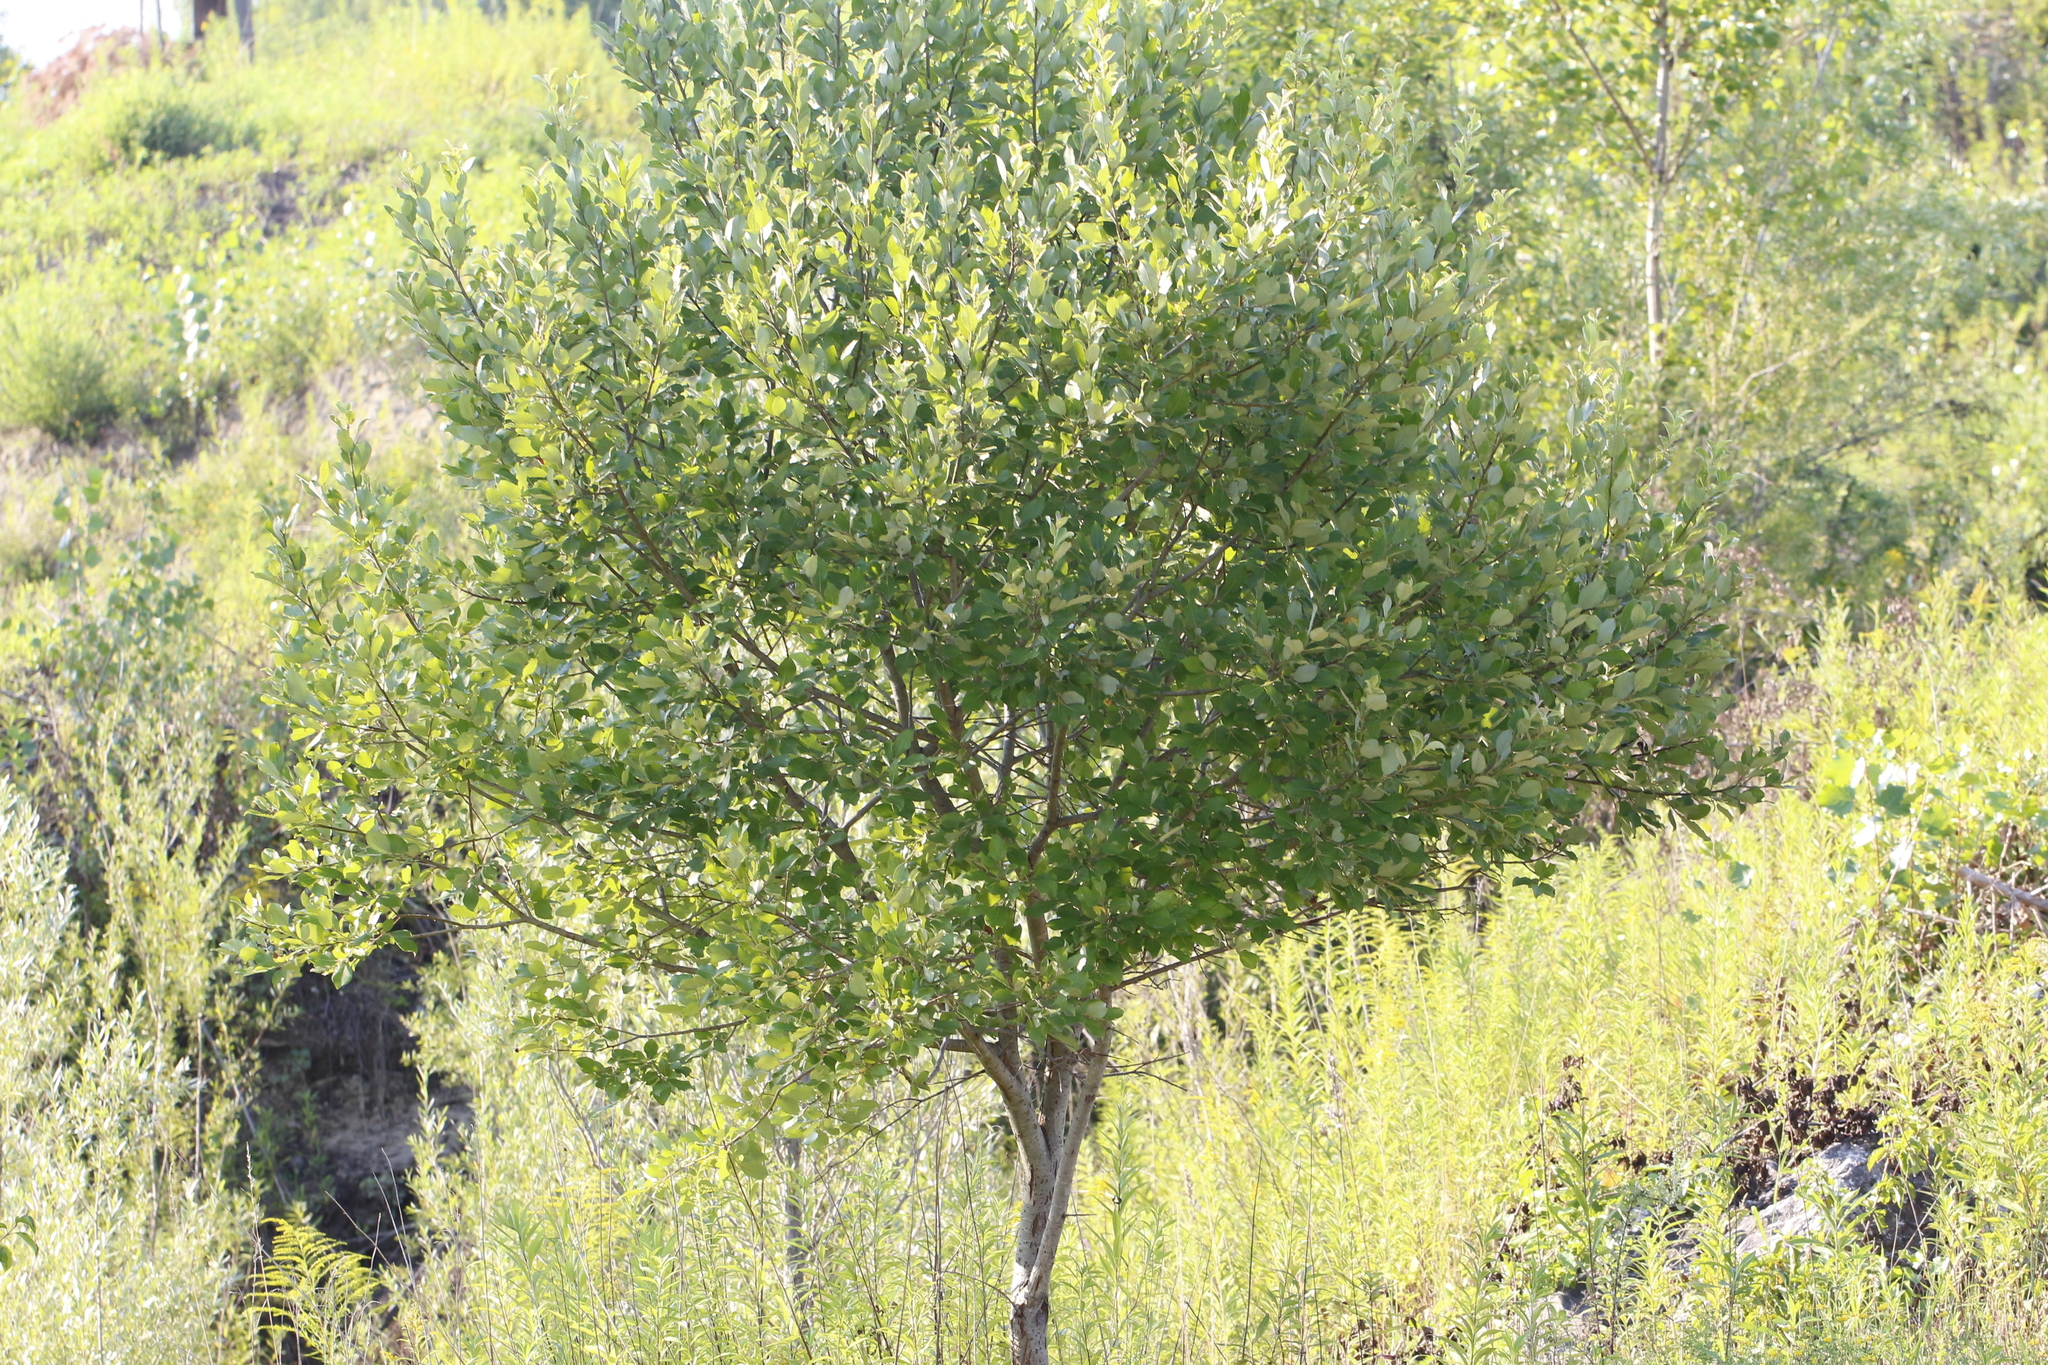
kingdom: Plantae
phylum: Tracheophyta
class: Magnoliopsida
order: Malpighiales
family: Salicaceae
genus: Salix
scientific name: Salix caprea
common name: Goat willow
